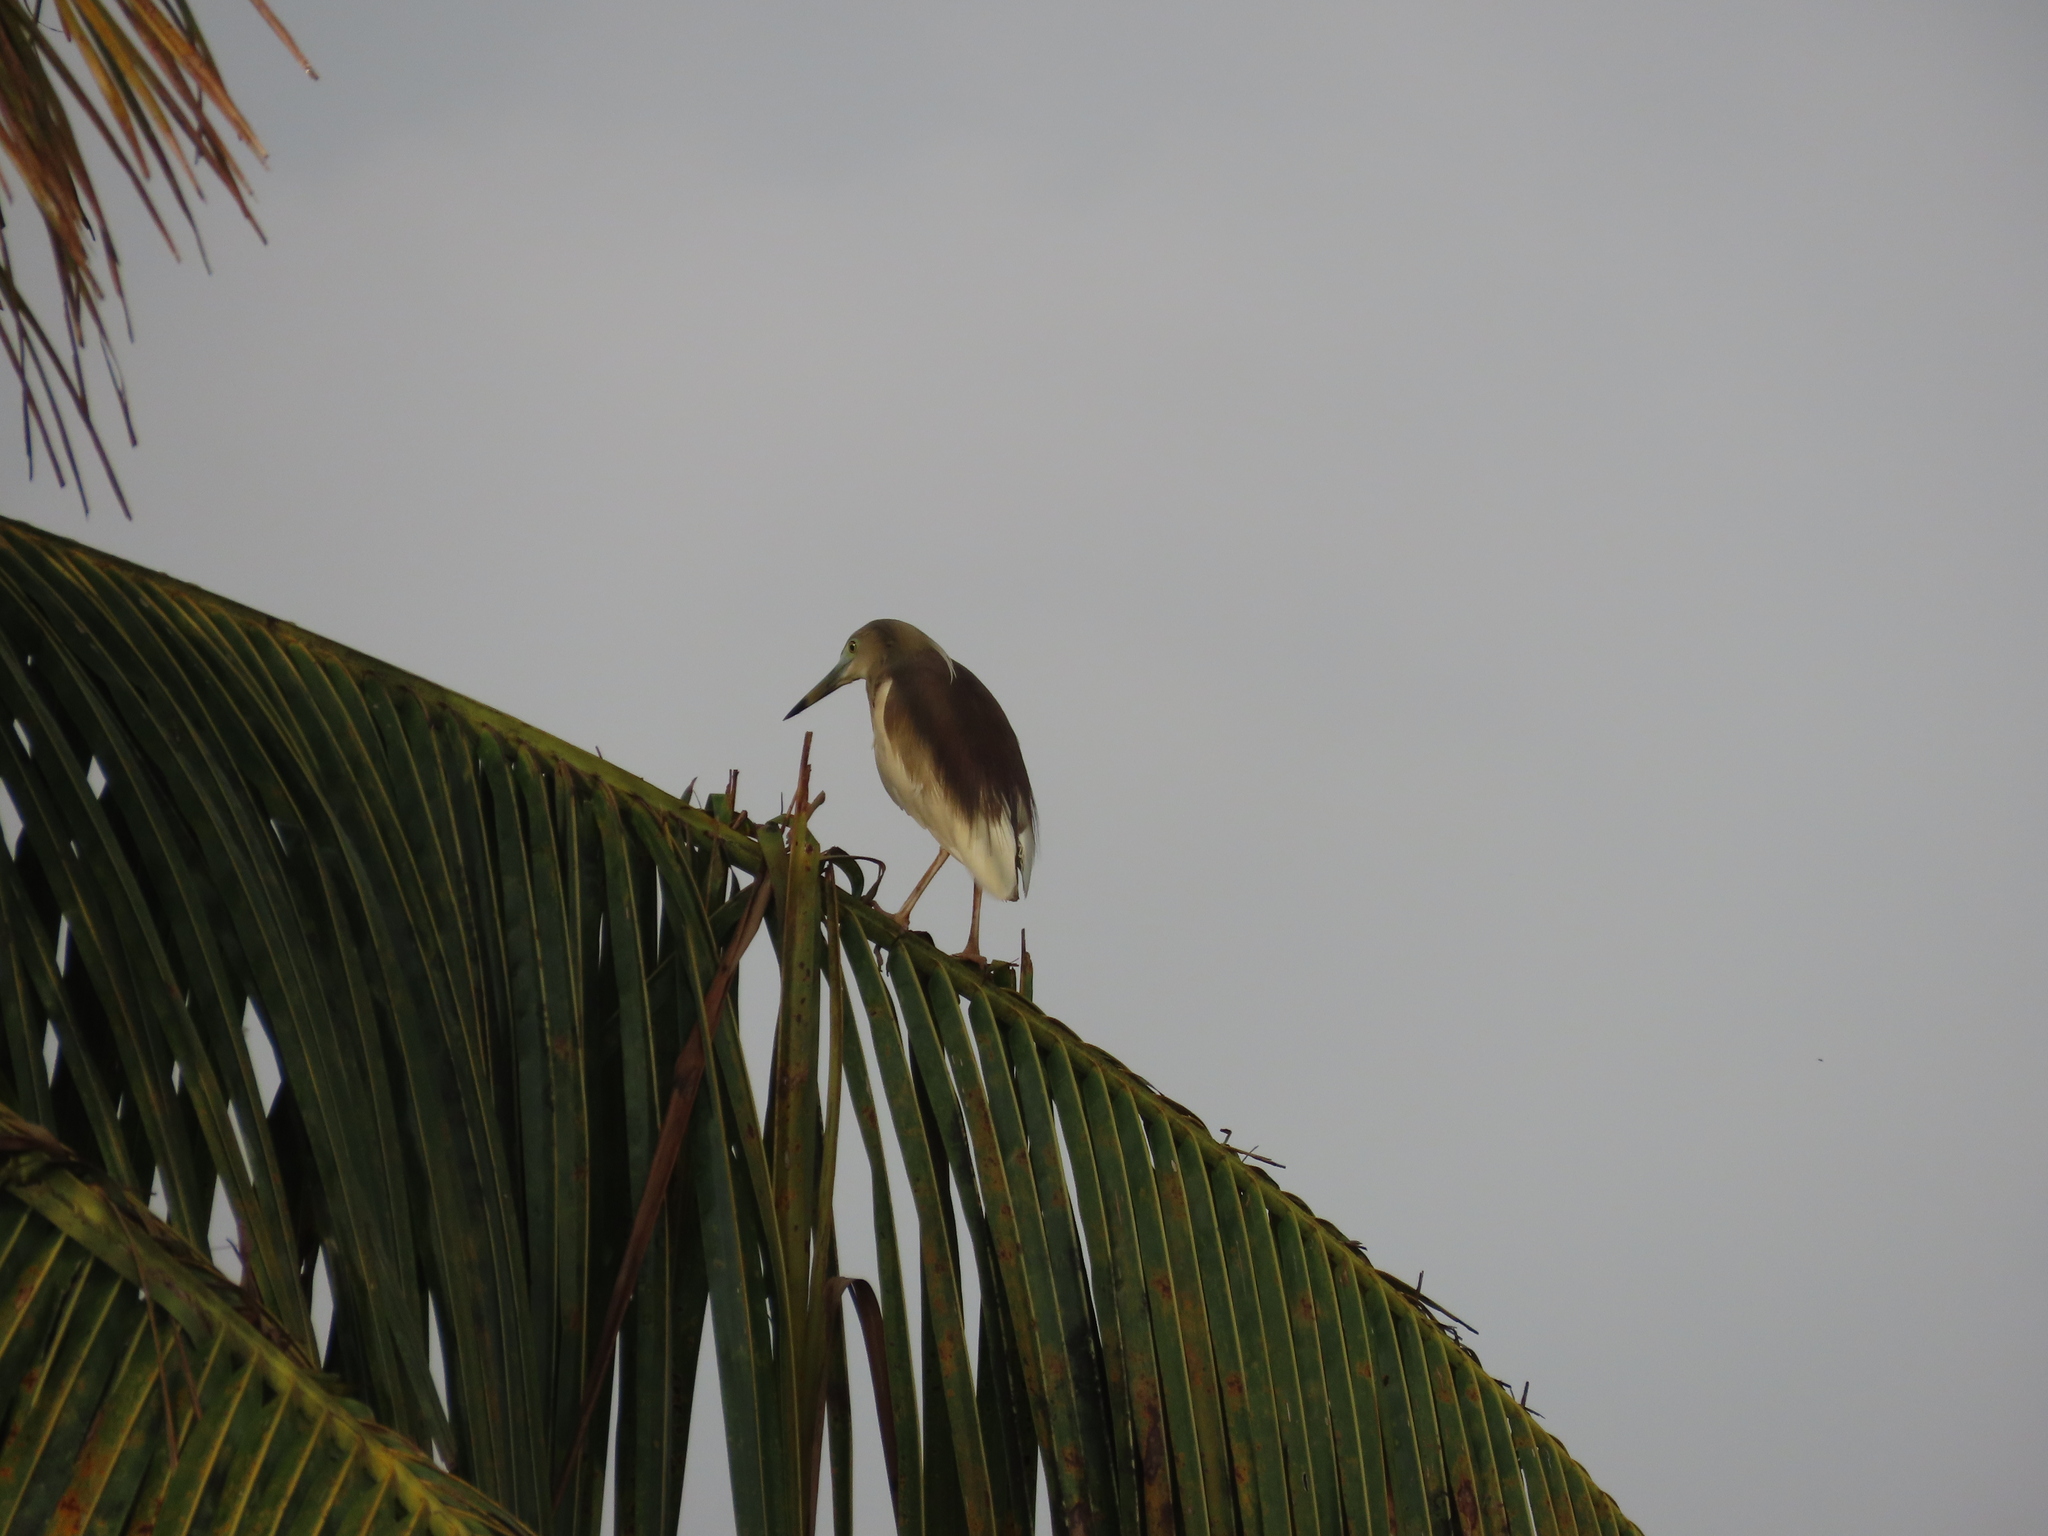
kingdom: Animalia
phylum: Chordata
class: Aves
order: Pelecaniformes
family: Ardeidae
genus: Ardeola
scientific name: Ardeola grayii
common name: Indian pond heron
